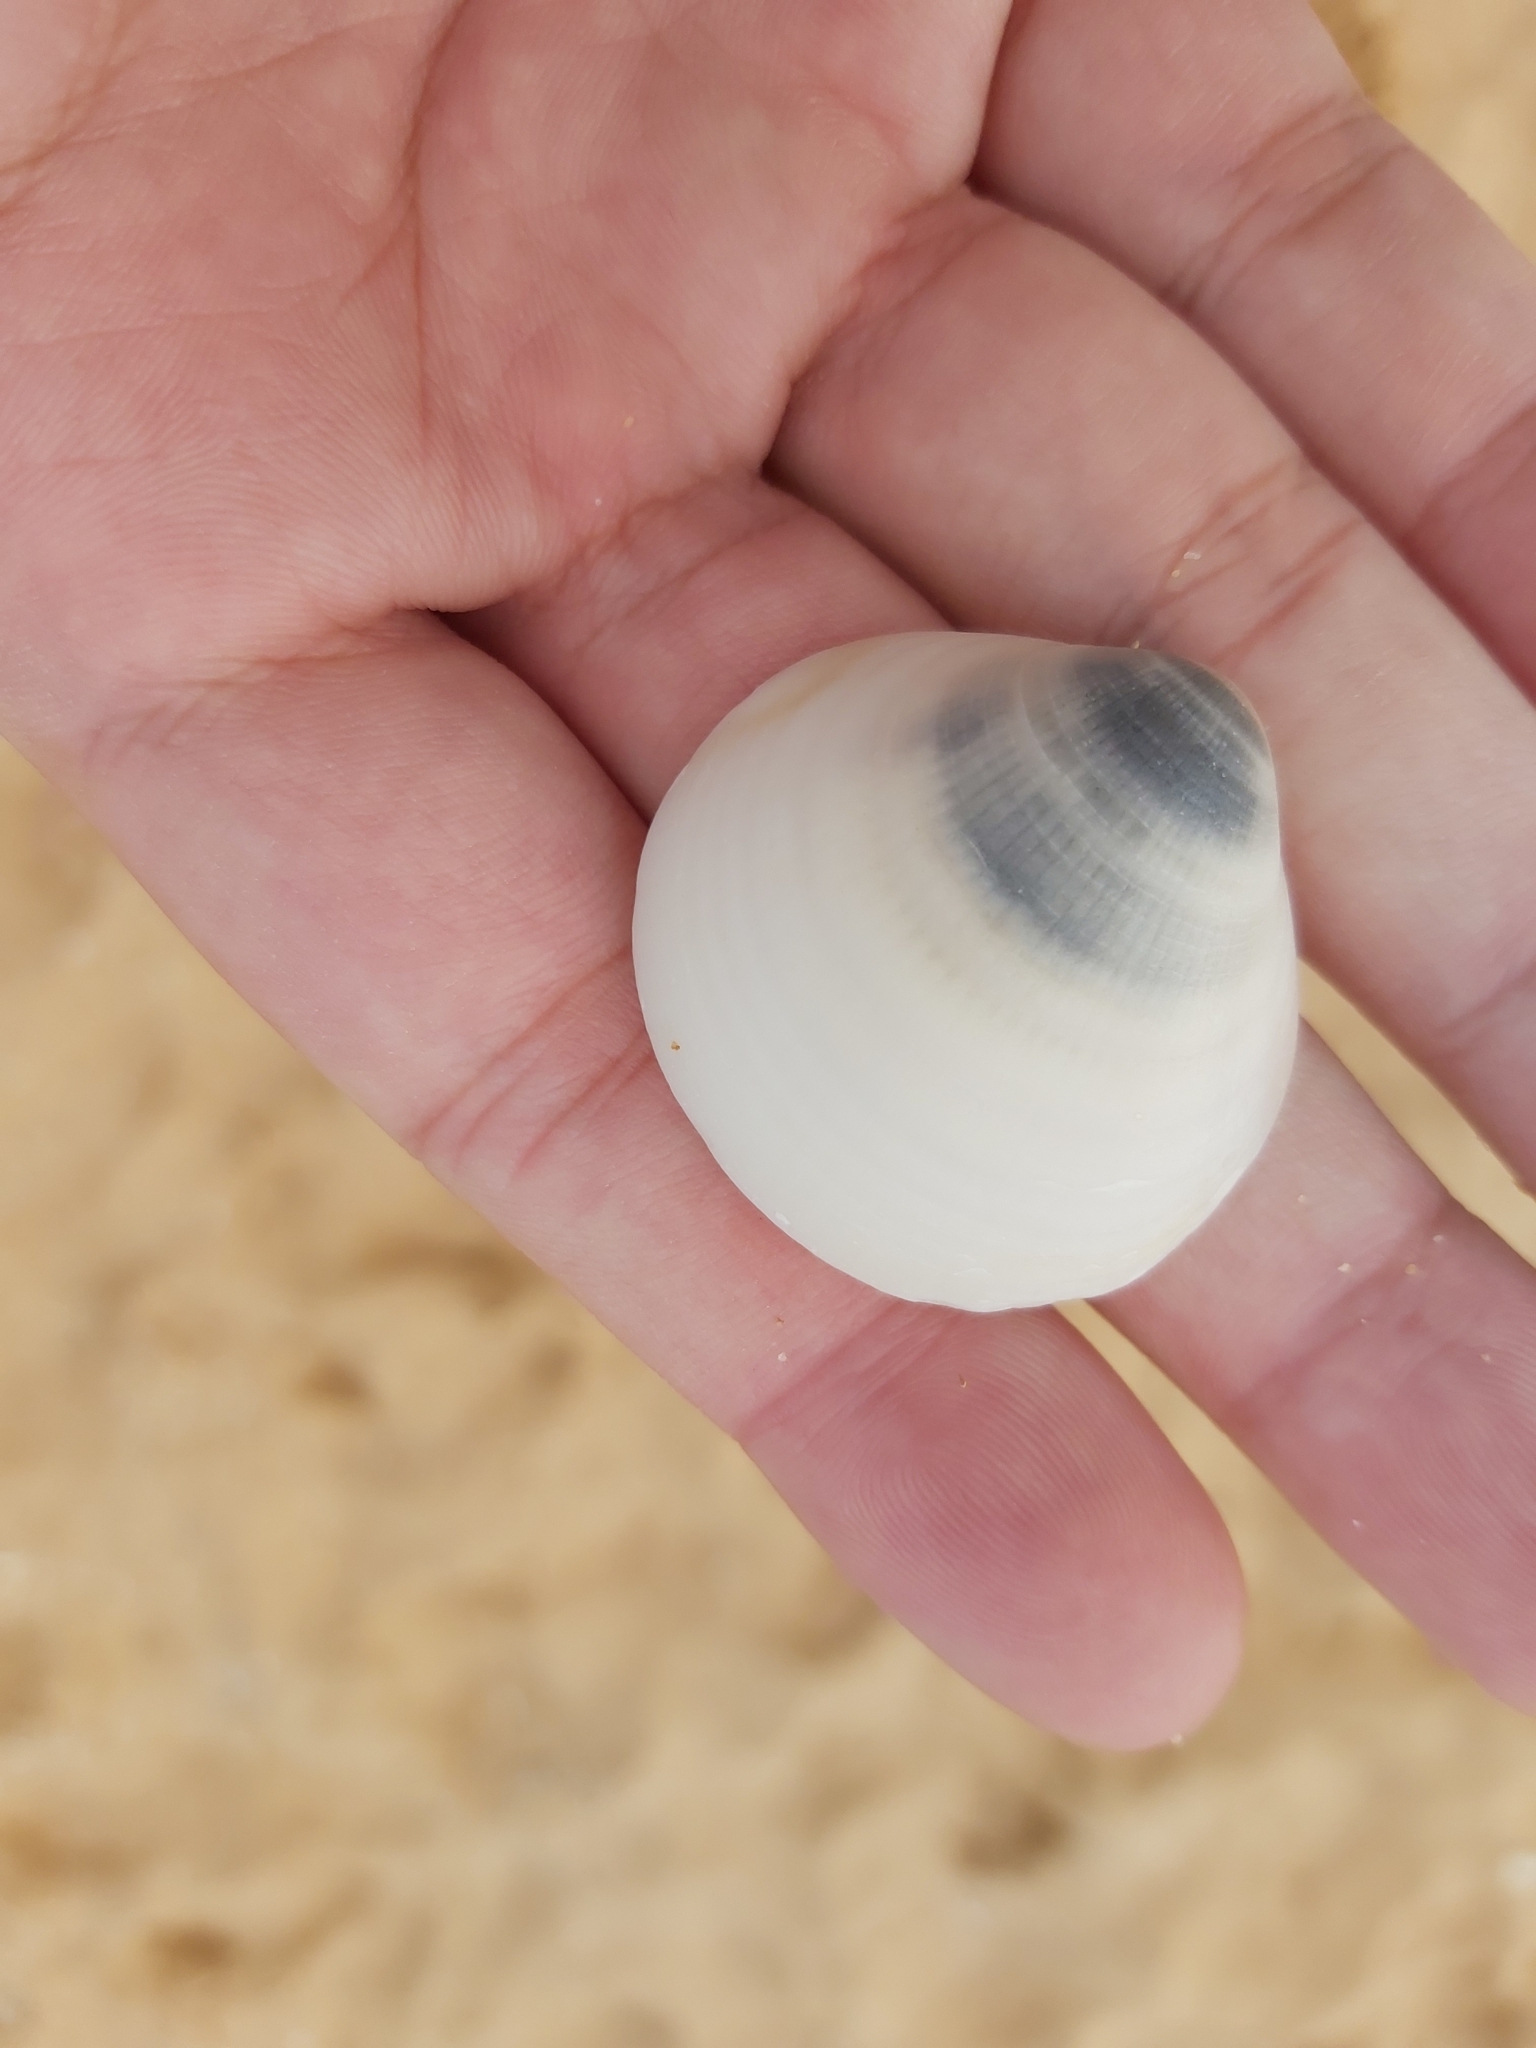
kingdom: Animalia
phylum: Mollusca
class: Bivalvia
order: Arcida
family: Glycymerididae
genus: Glycymeris
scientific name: Glycymeris grayana
